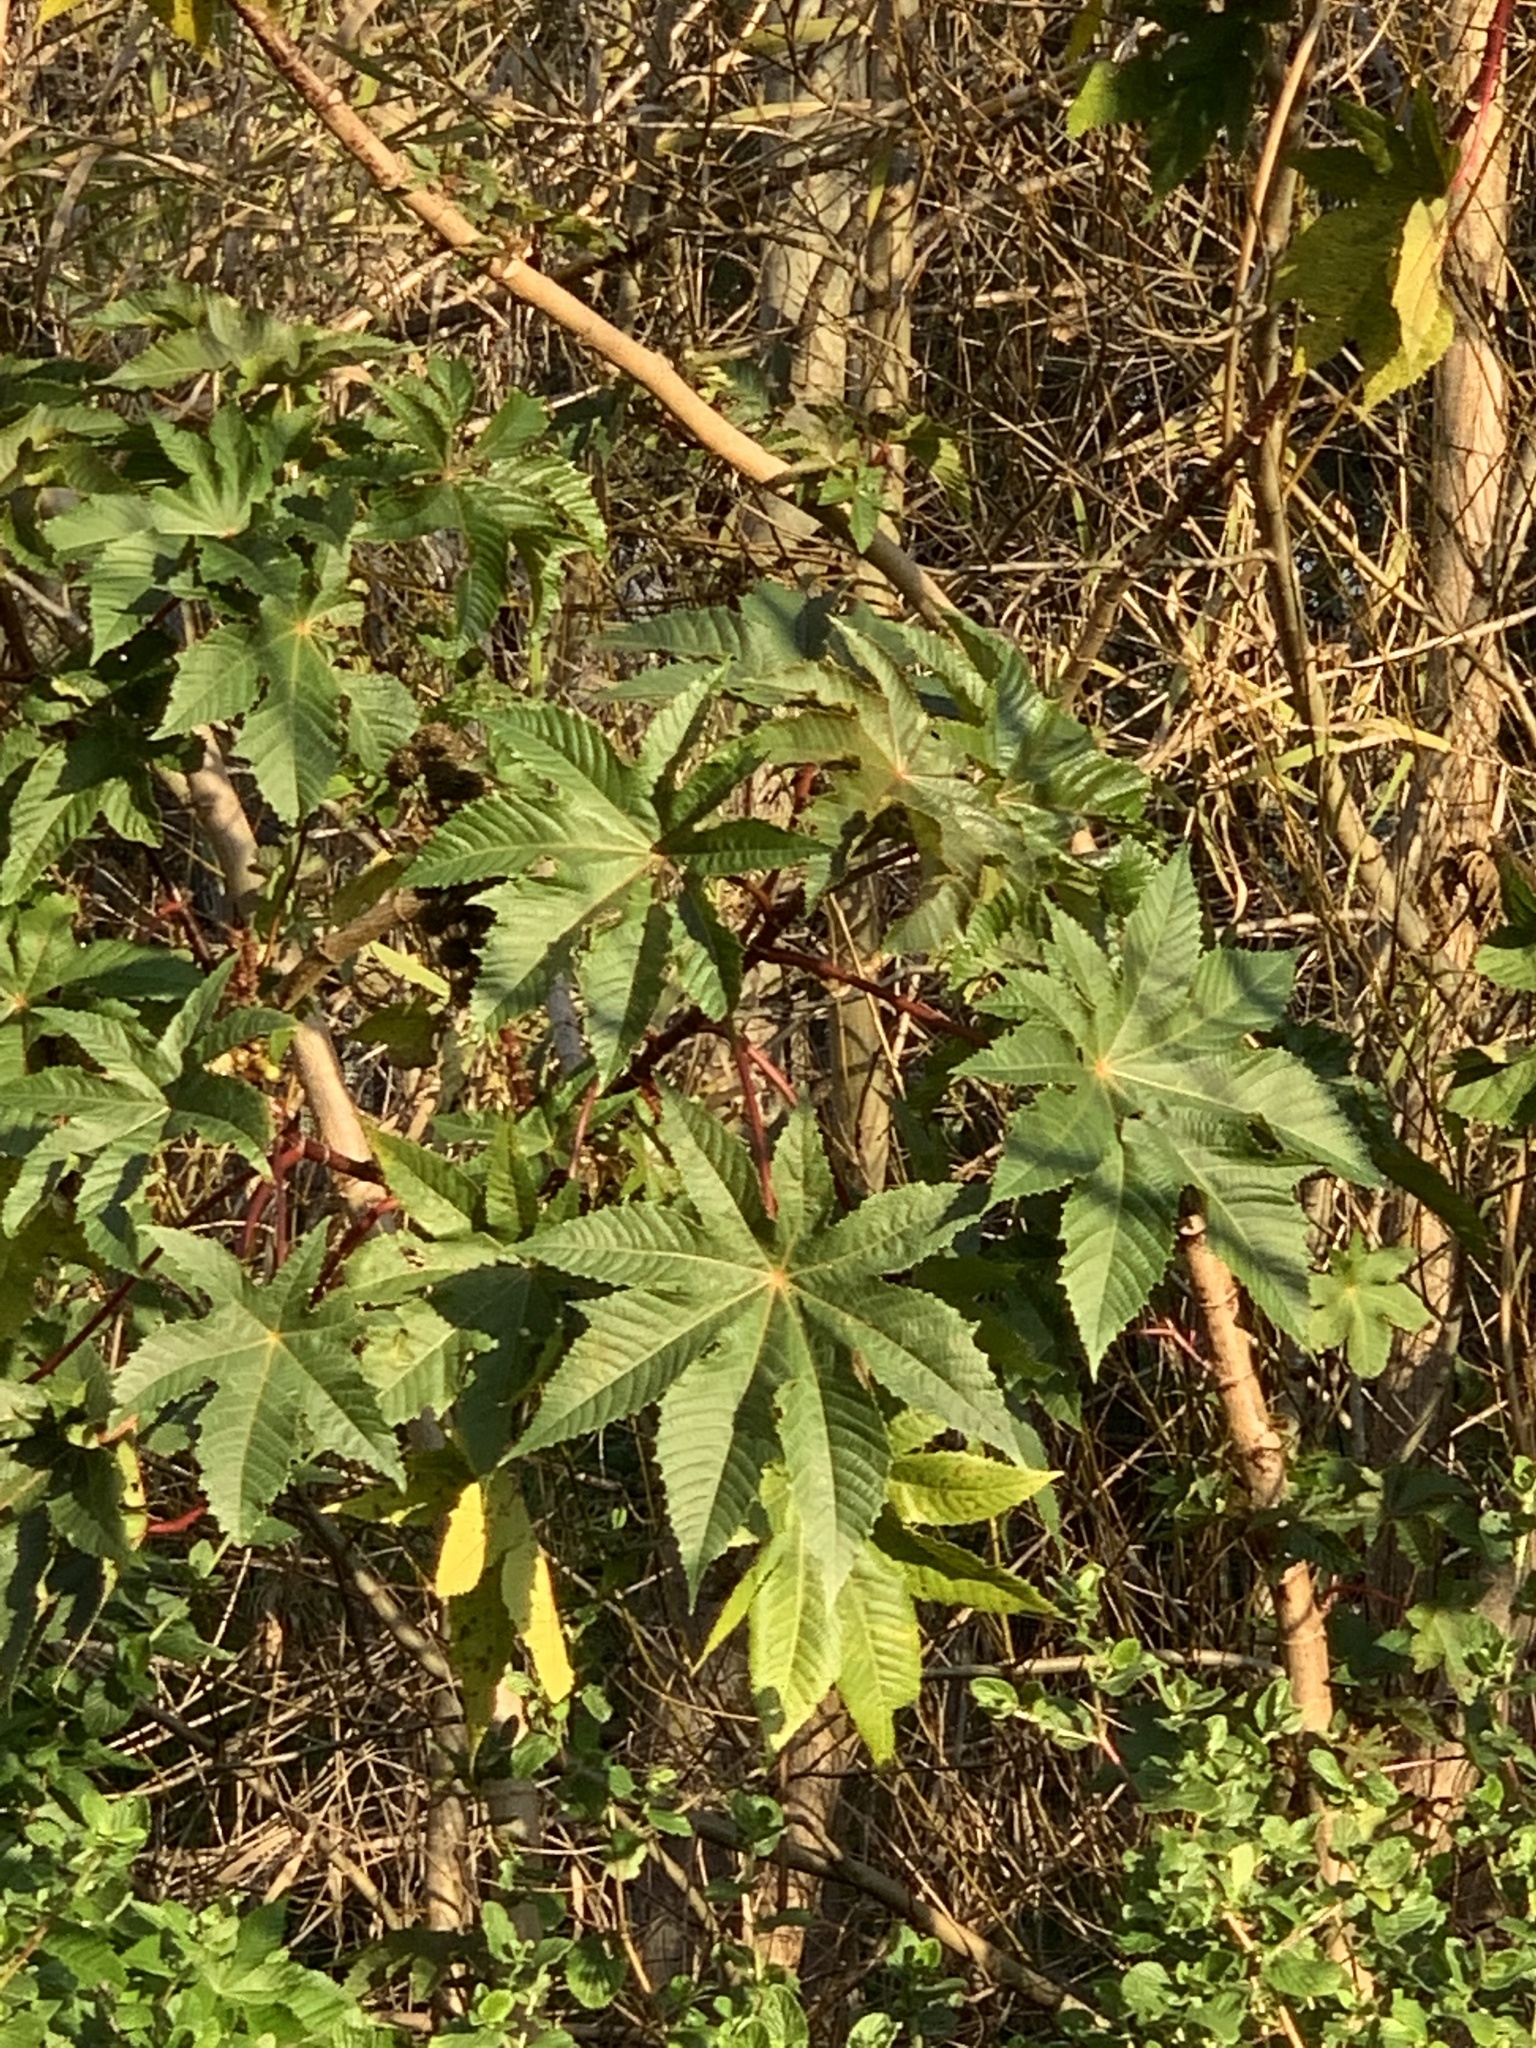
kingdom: Plantae
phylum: Tracheophyta
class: Magnoliopsida
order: Malpighiales
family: Euphorbiaceae
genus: Ricinus
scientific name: Ricinus communis
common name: Castor-oil-plant
